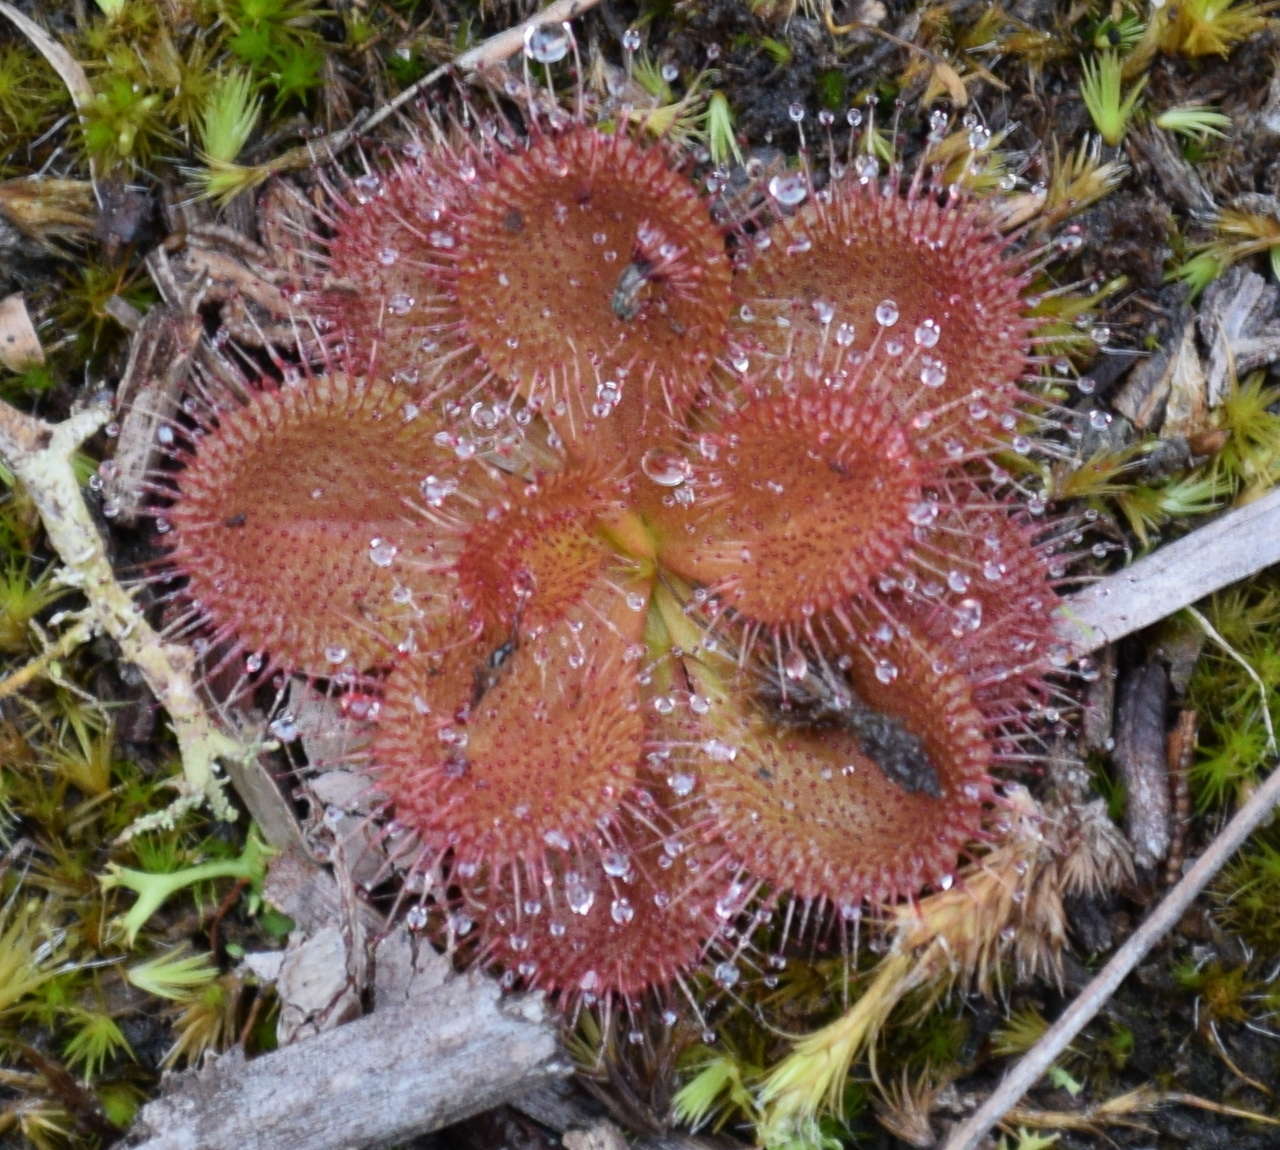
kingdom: Plantae
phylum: Tracheophyta
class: Magnoliopsida
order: Caryophyllales
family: Droseraceae
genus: Drosera
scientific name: Drosera aberrans
